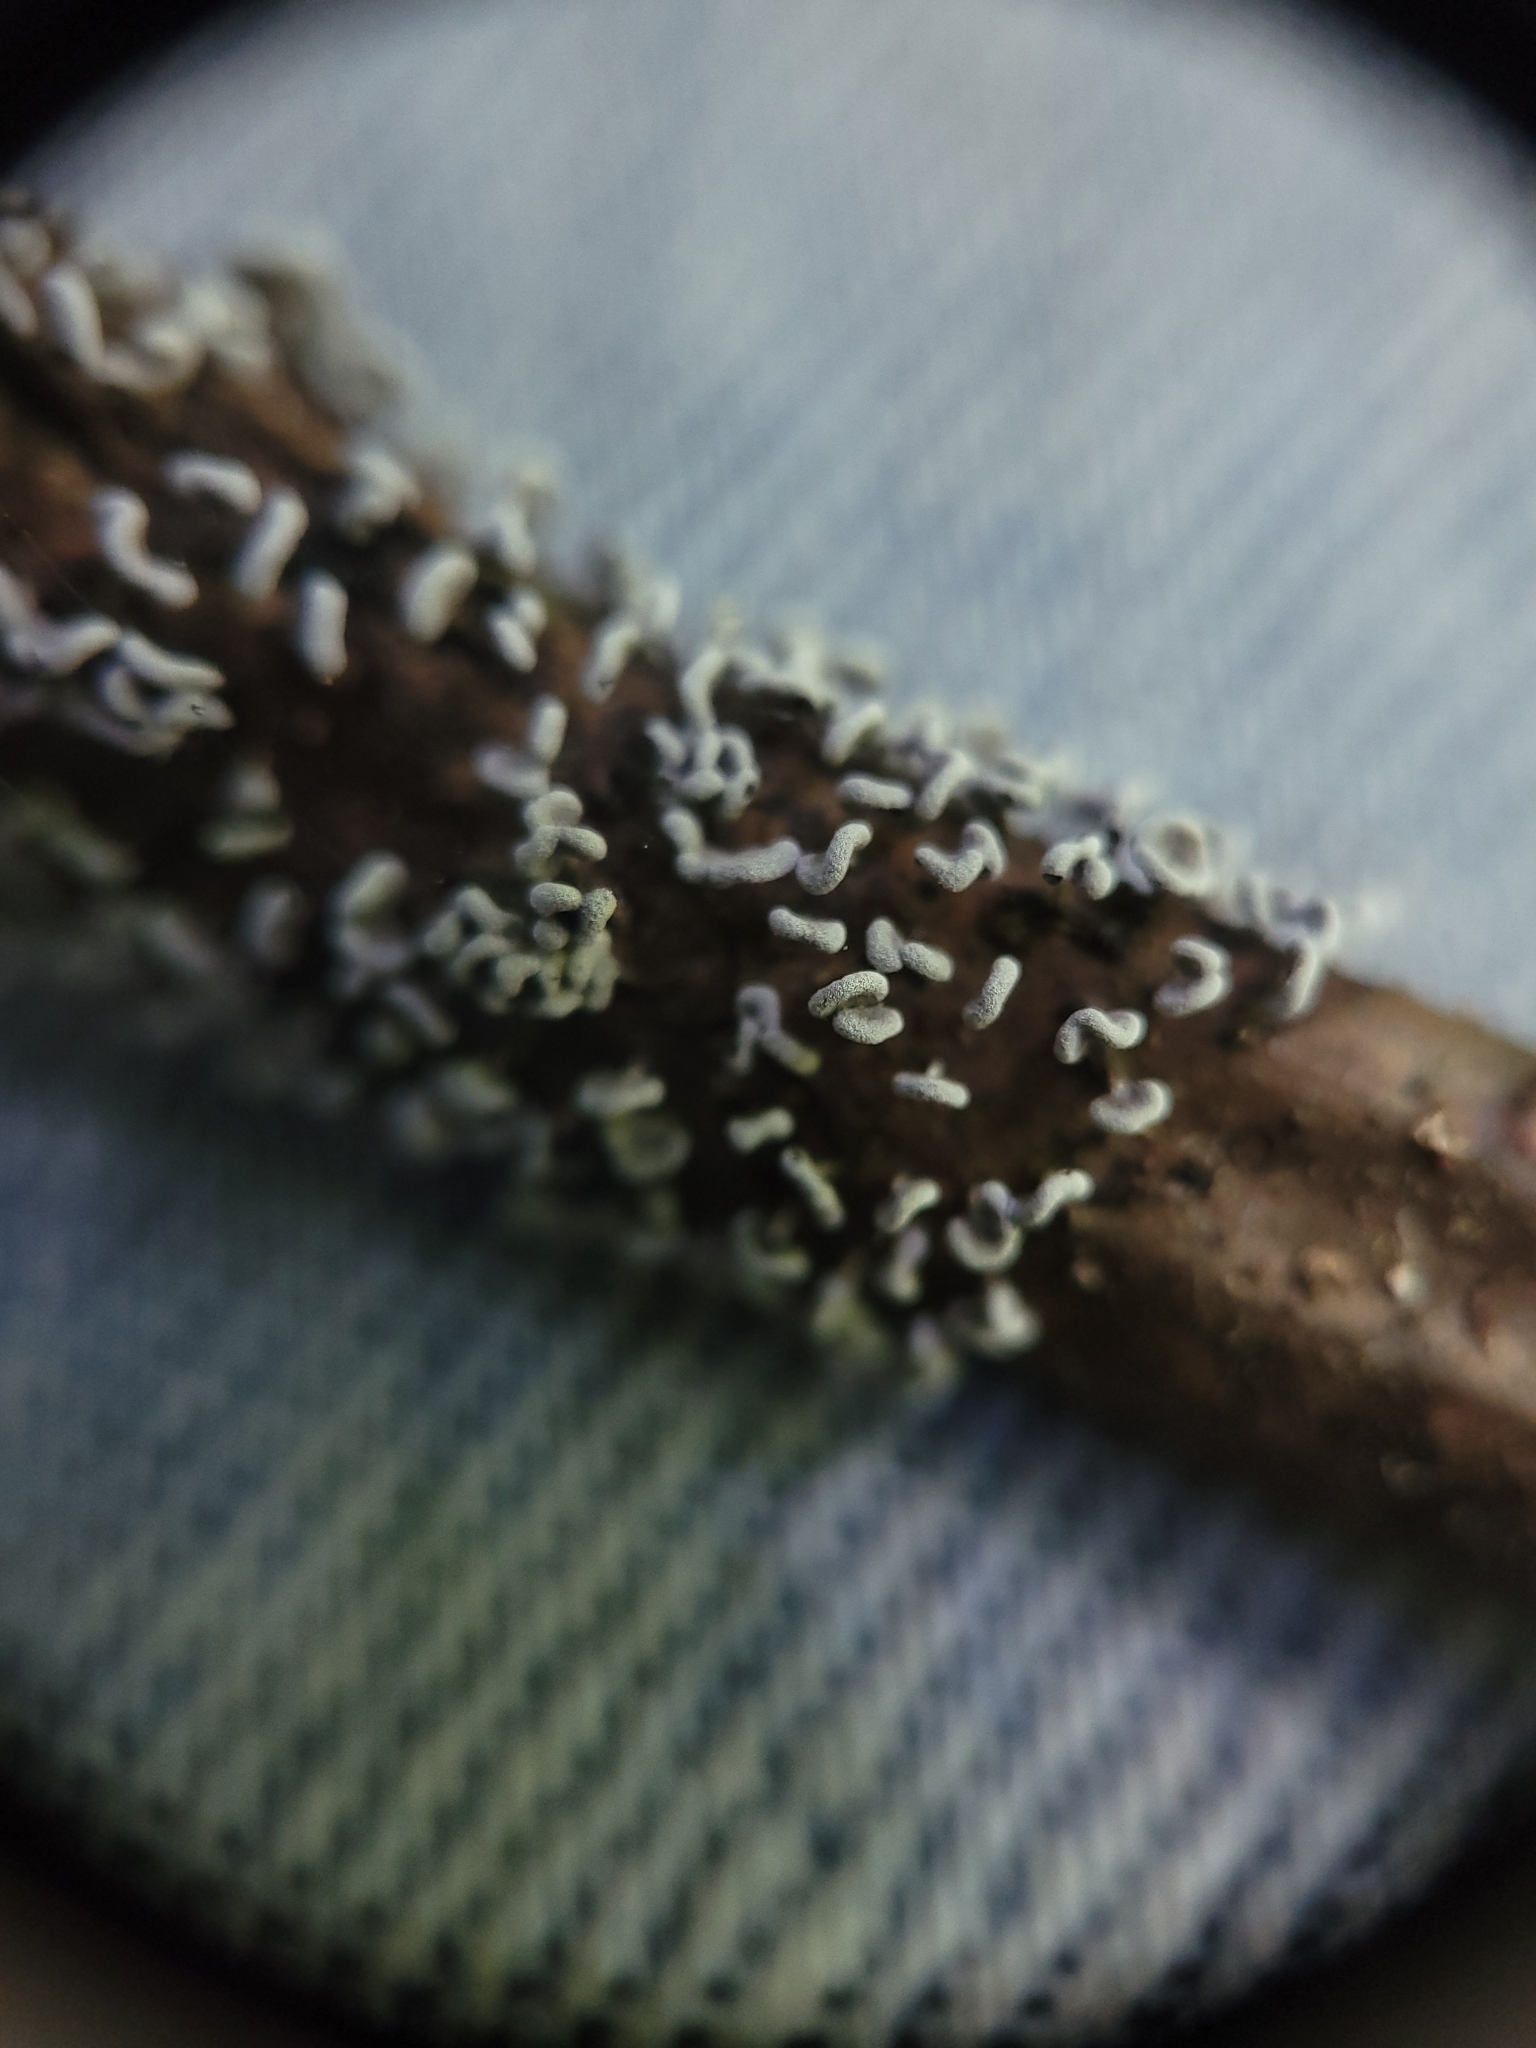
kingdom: Protozoa
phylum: Mycetozoa
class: Myxomycetes
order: Physarales
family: Physaraceae
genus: Physarum
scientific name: Physarum compressum
